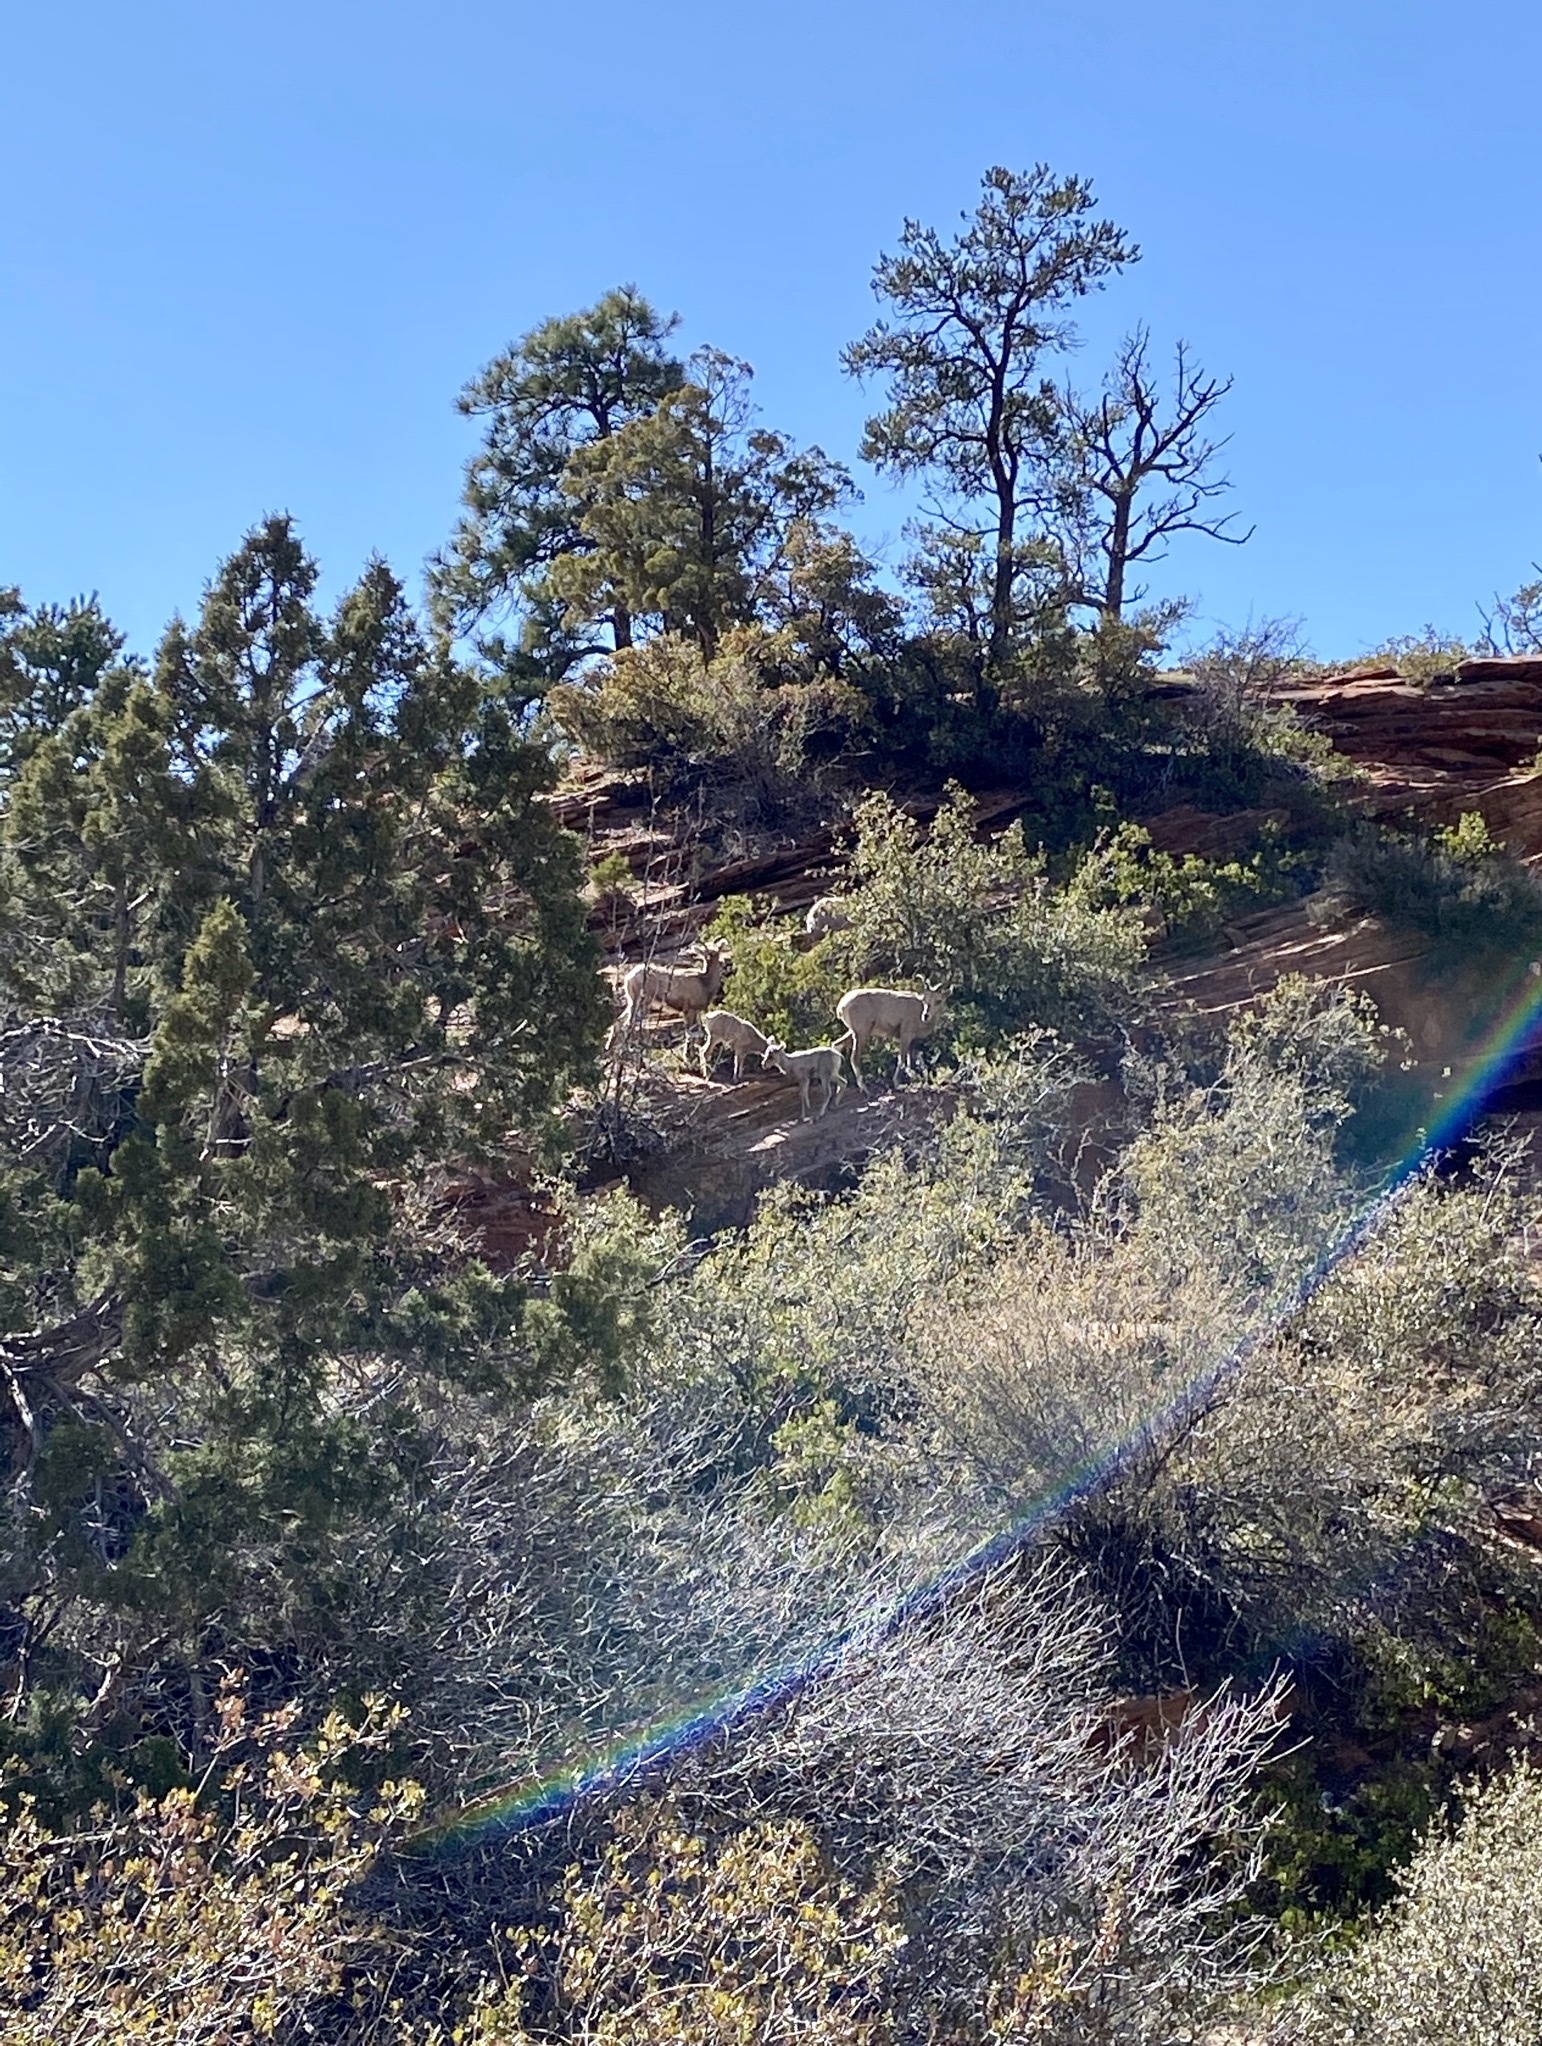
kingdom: Animalia
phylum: Chordata
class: Mammalia
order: Artiodactyla
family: Bovidae
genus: Ovis
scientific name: Ovis canadensis
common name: Bighorn sheep
